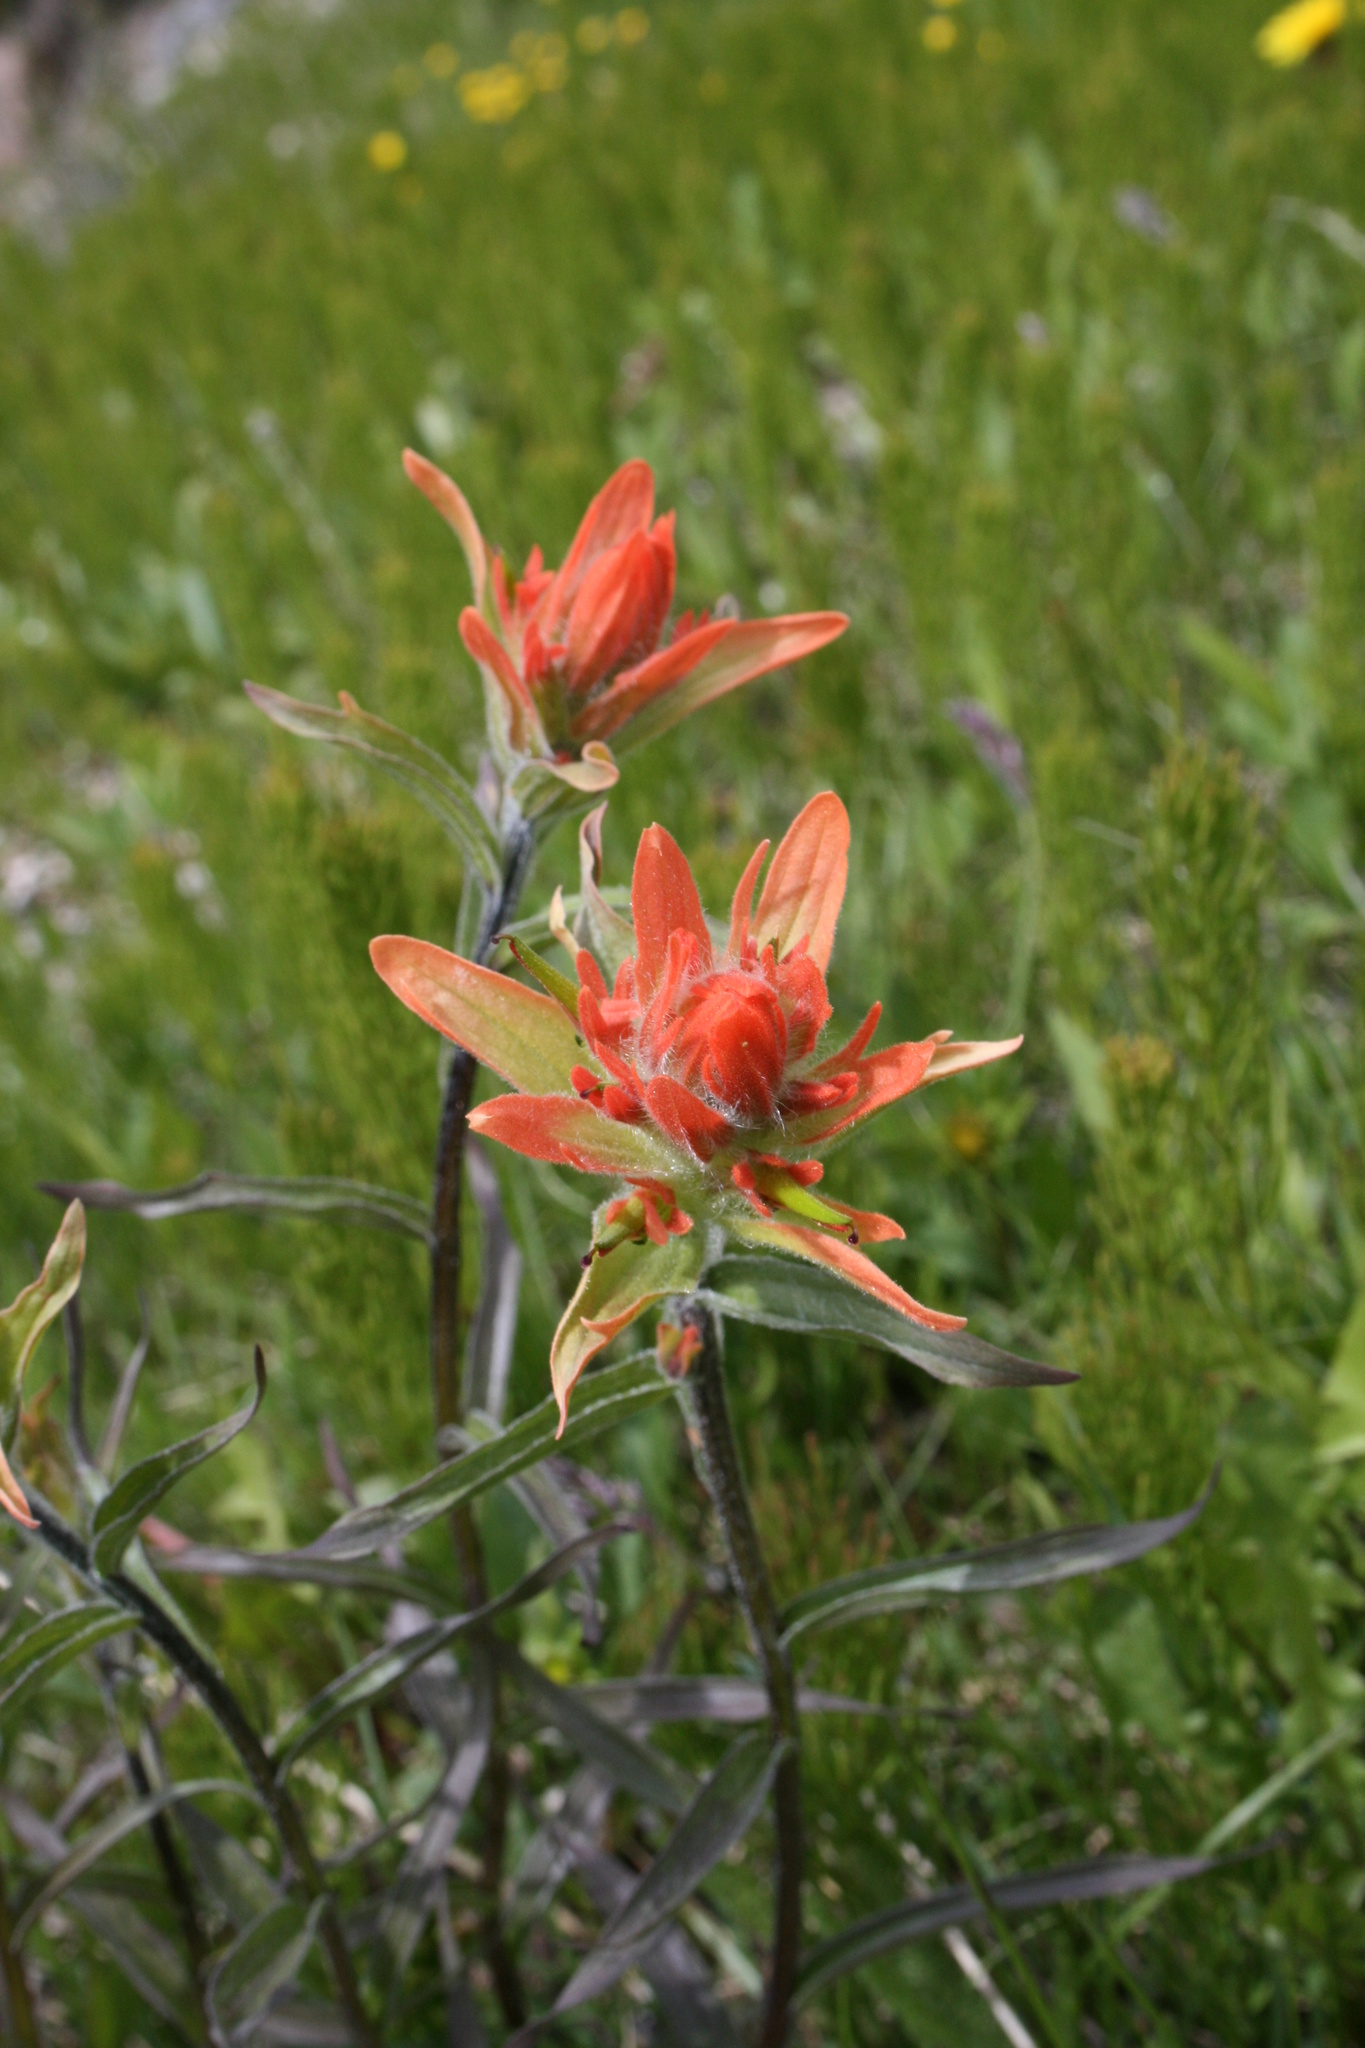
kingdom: Plantae
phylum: Tracheophyta
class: Magnoliopsida
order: Lamiales
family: Orobanchaceae
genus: Castilleja
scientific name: Castilleja miniata
